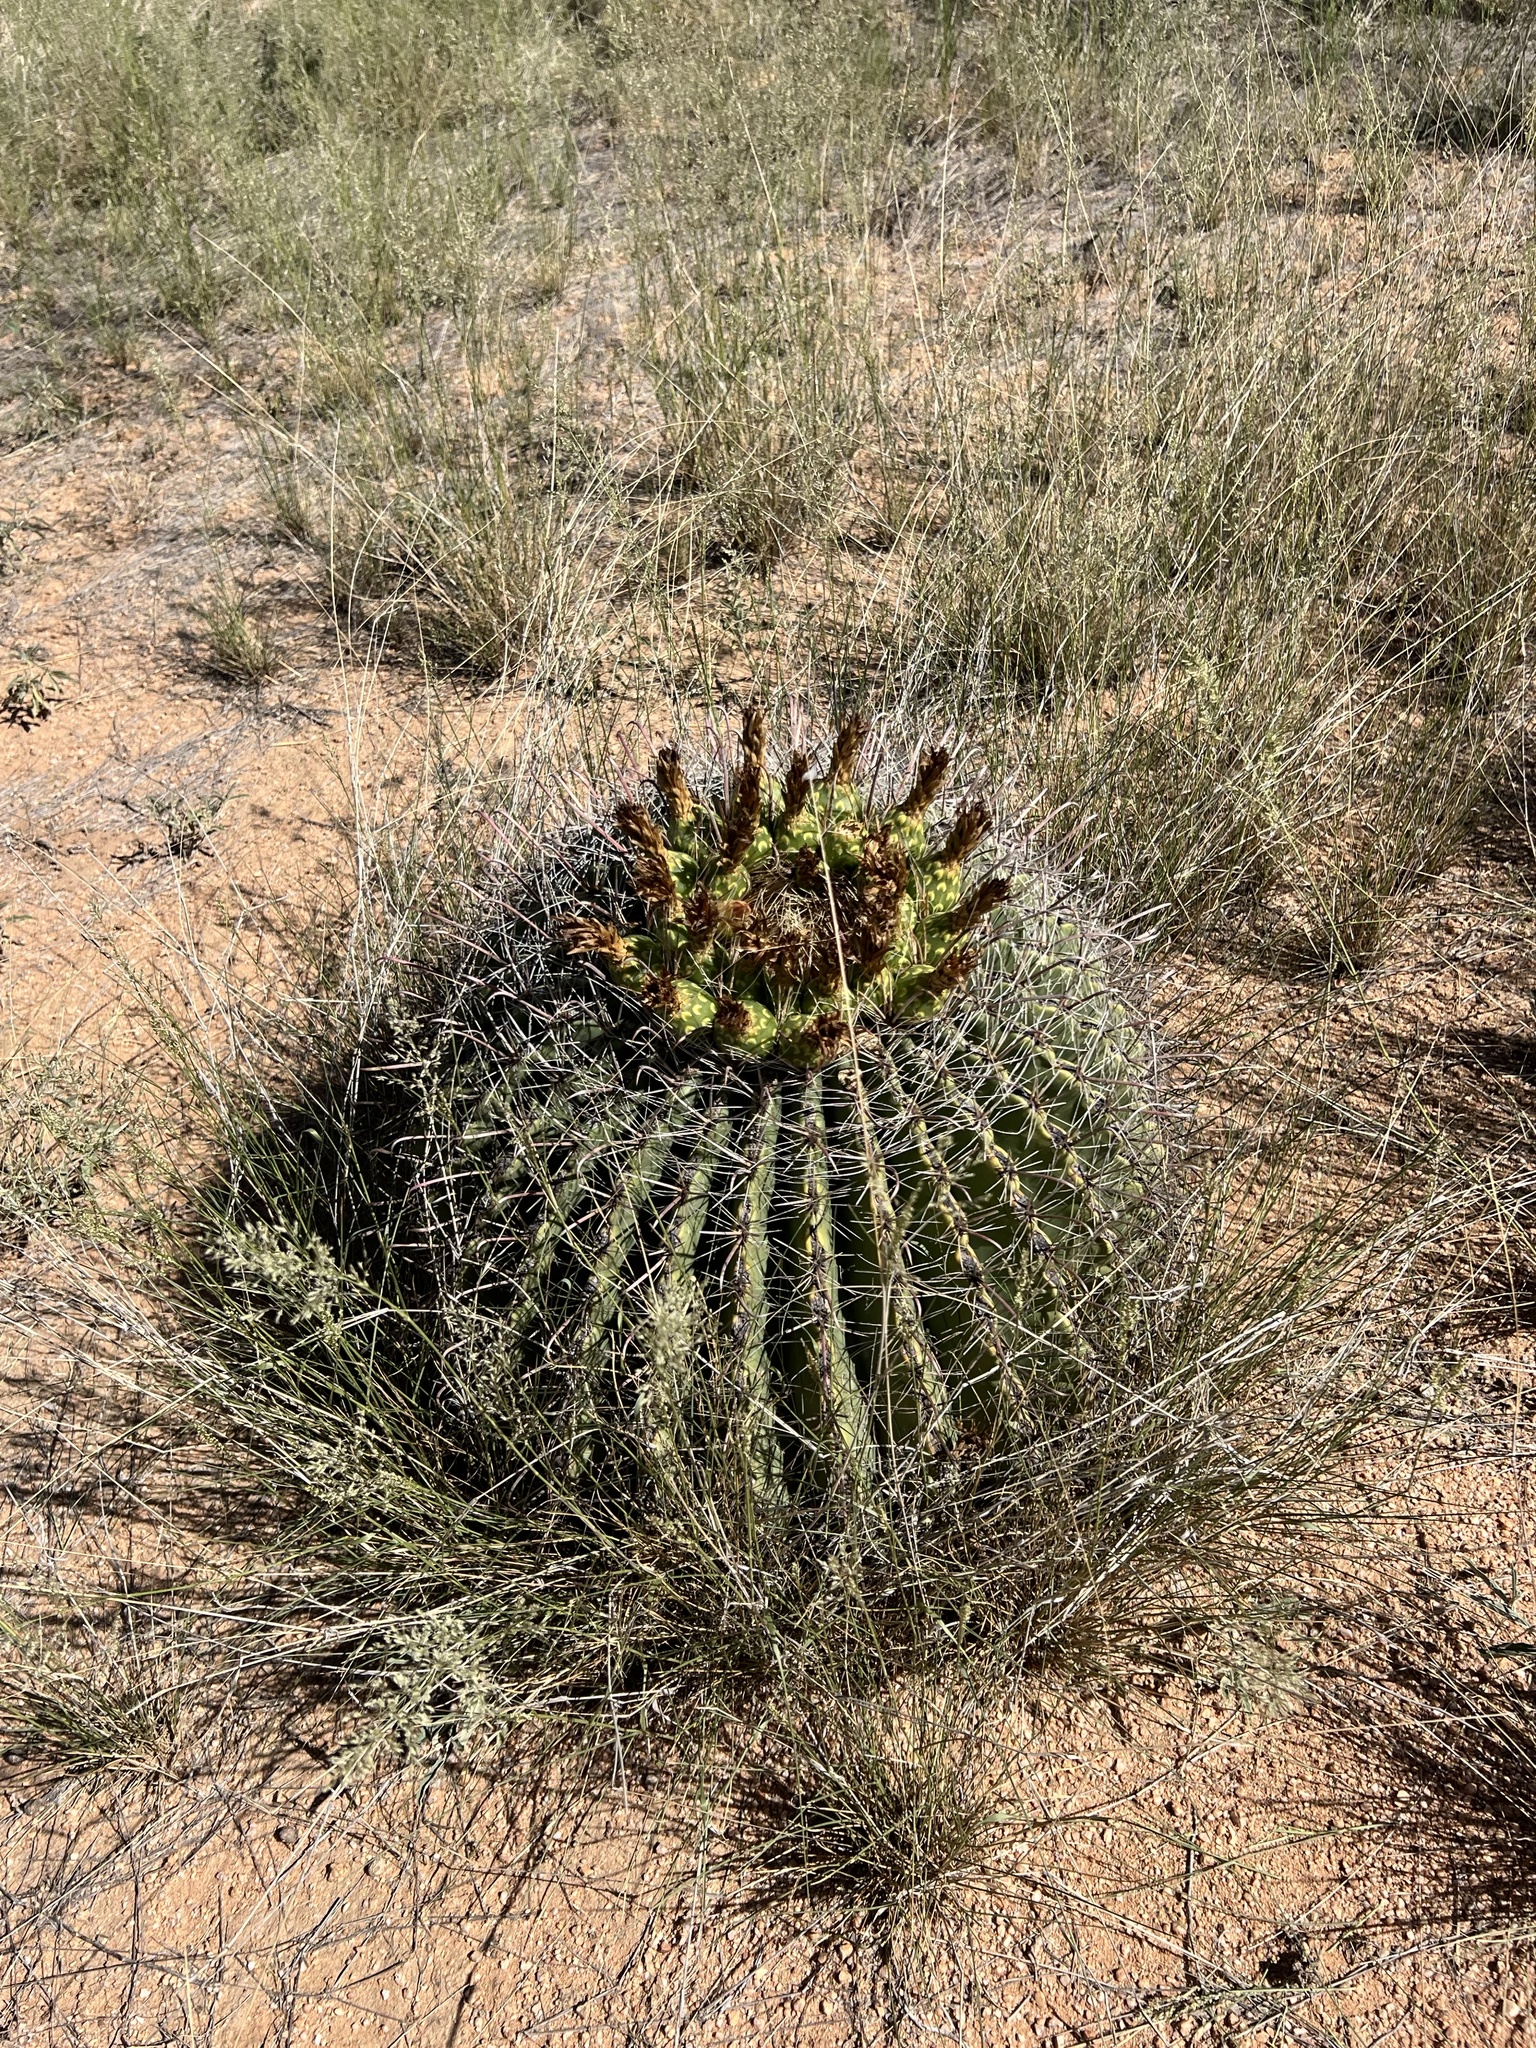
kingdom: Plantae
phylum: Tracheophyta
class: Magnoliopsida
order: Caryophyllales
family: Cactaceae
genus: Ferocactus
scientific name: Ferocactus wislizeni
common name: Candy barrel cactus
